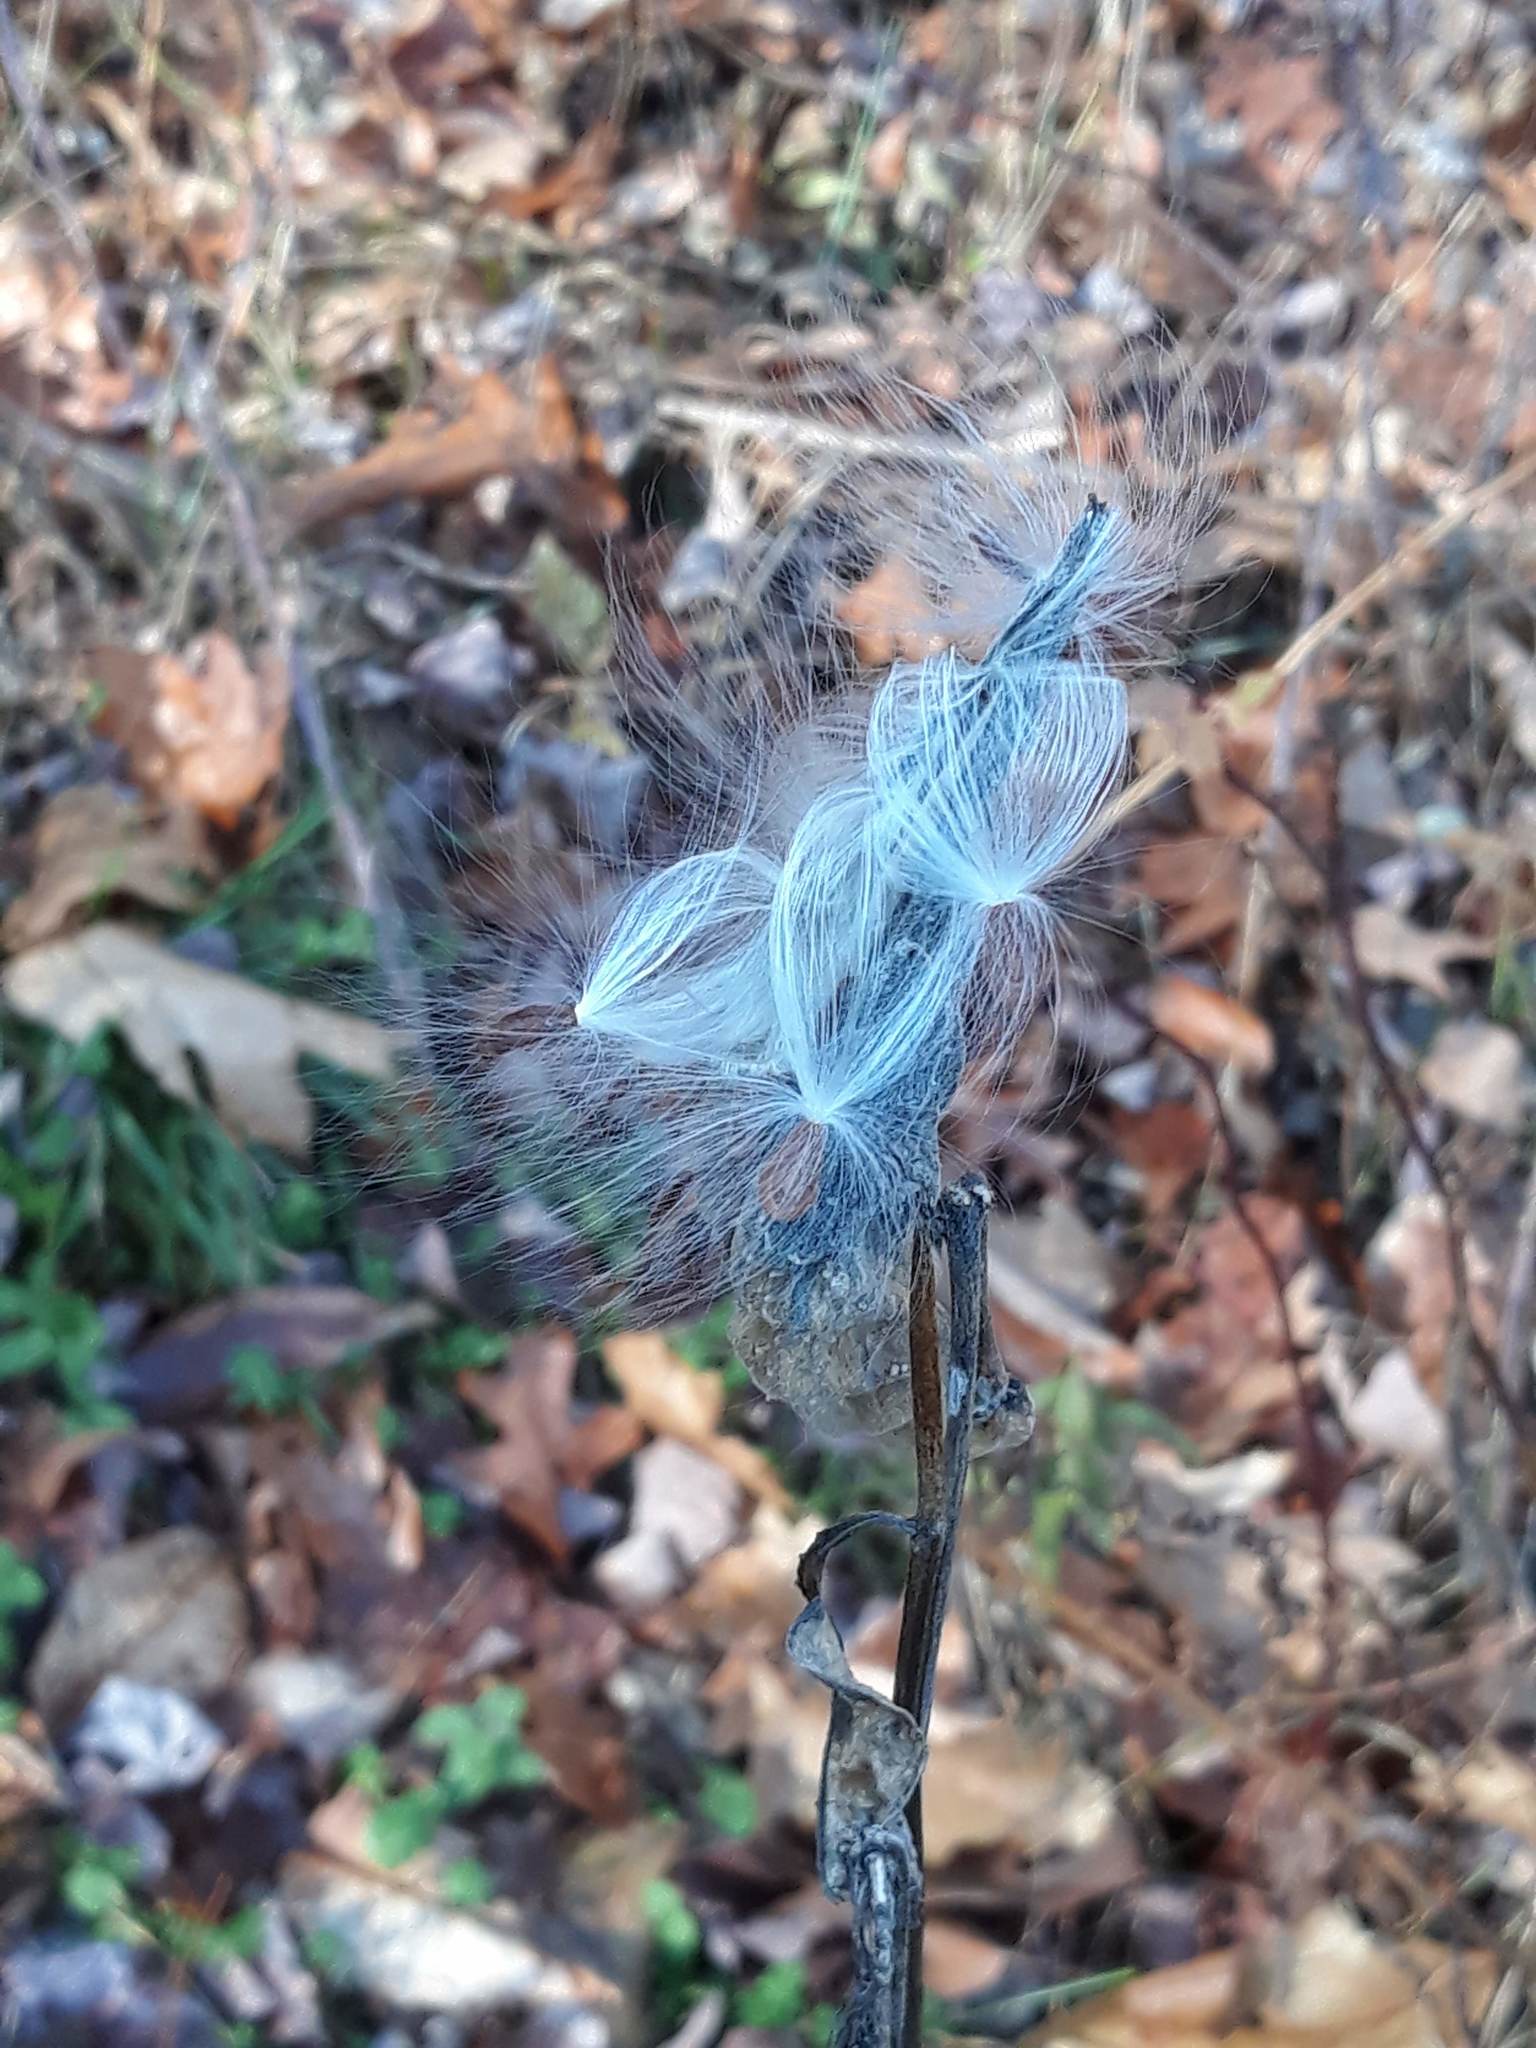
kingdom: Plantae
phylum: Tracheophyta
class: Magnoliopsida
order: Gentianales
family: Apocynaceae
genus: Asclepias
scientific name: Asclepias syriaca
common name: Common milkweed
